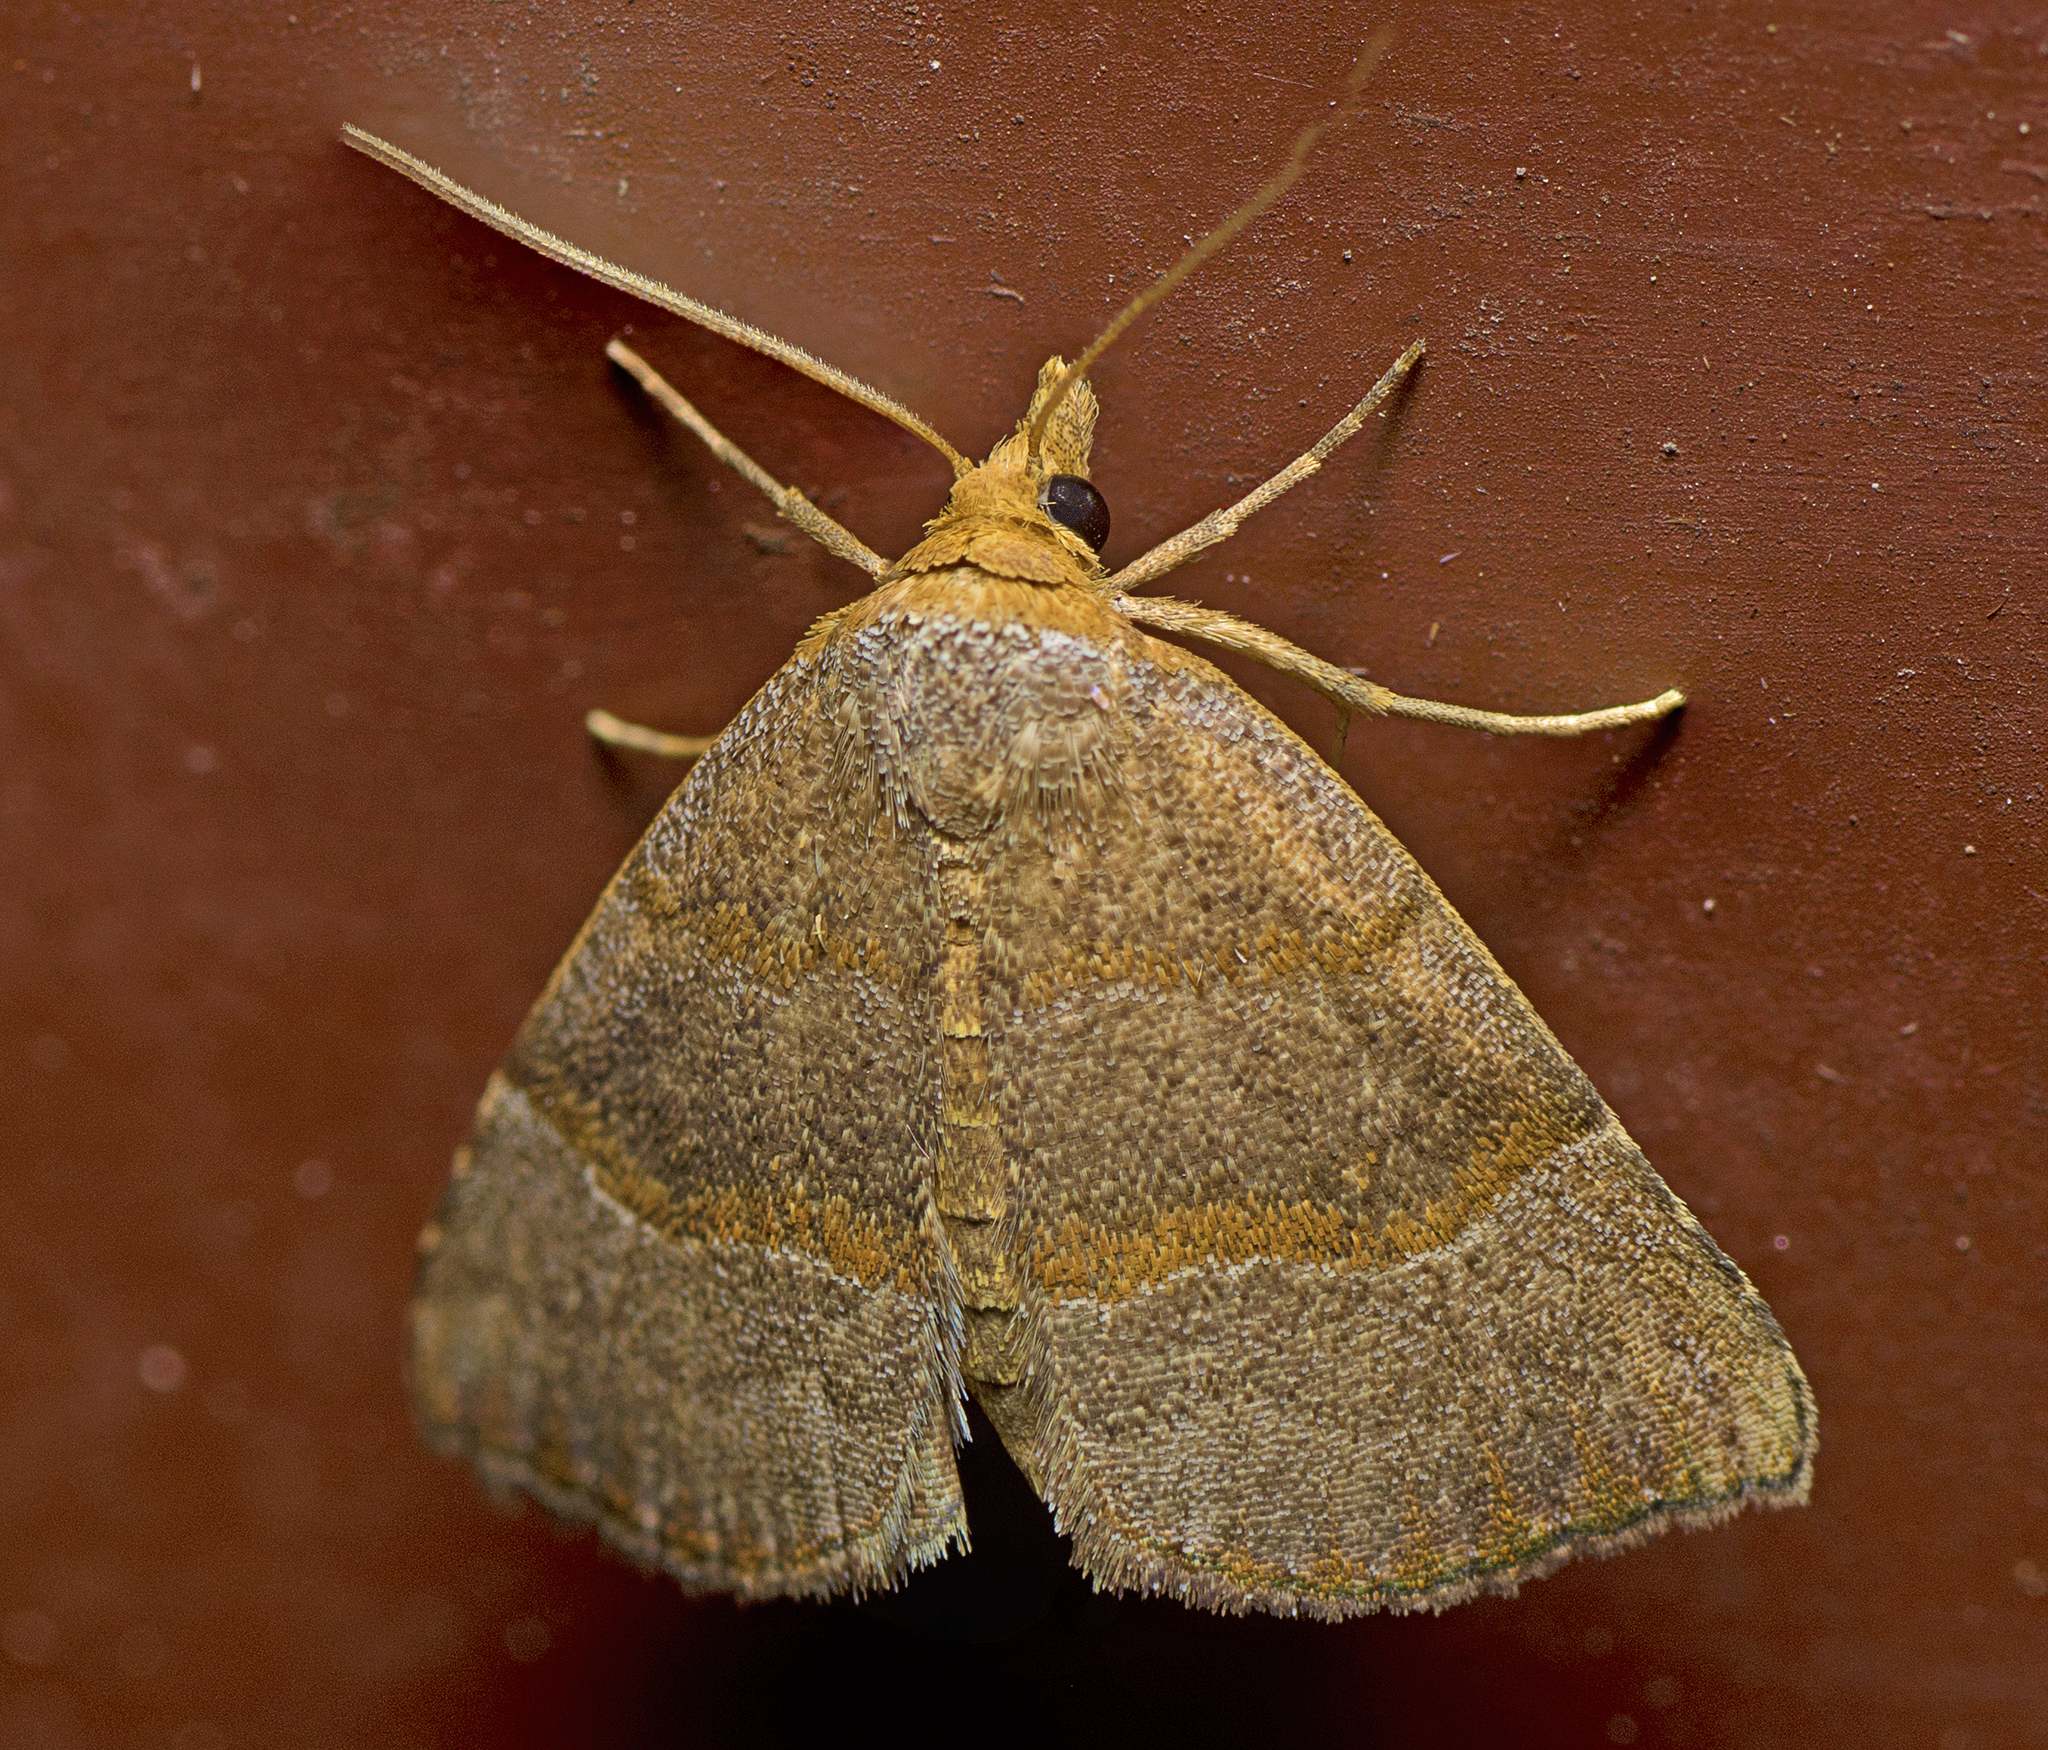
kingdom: Animalia
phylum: Arthropoda
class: Insecta
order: Lepidoptera
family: Erebidae
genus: Meranda
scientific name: Meranda susialis
